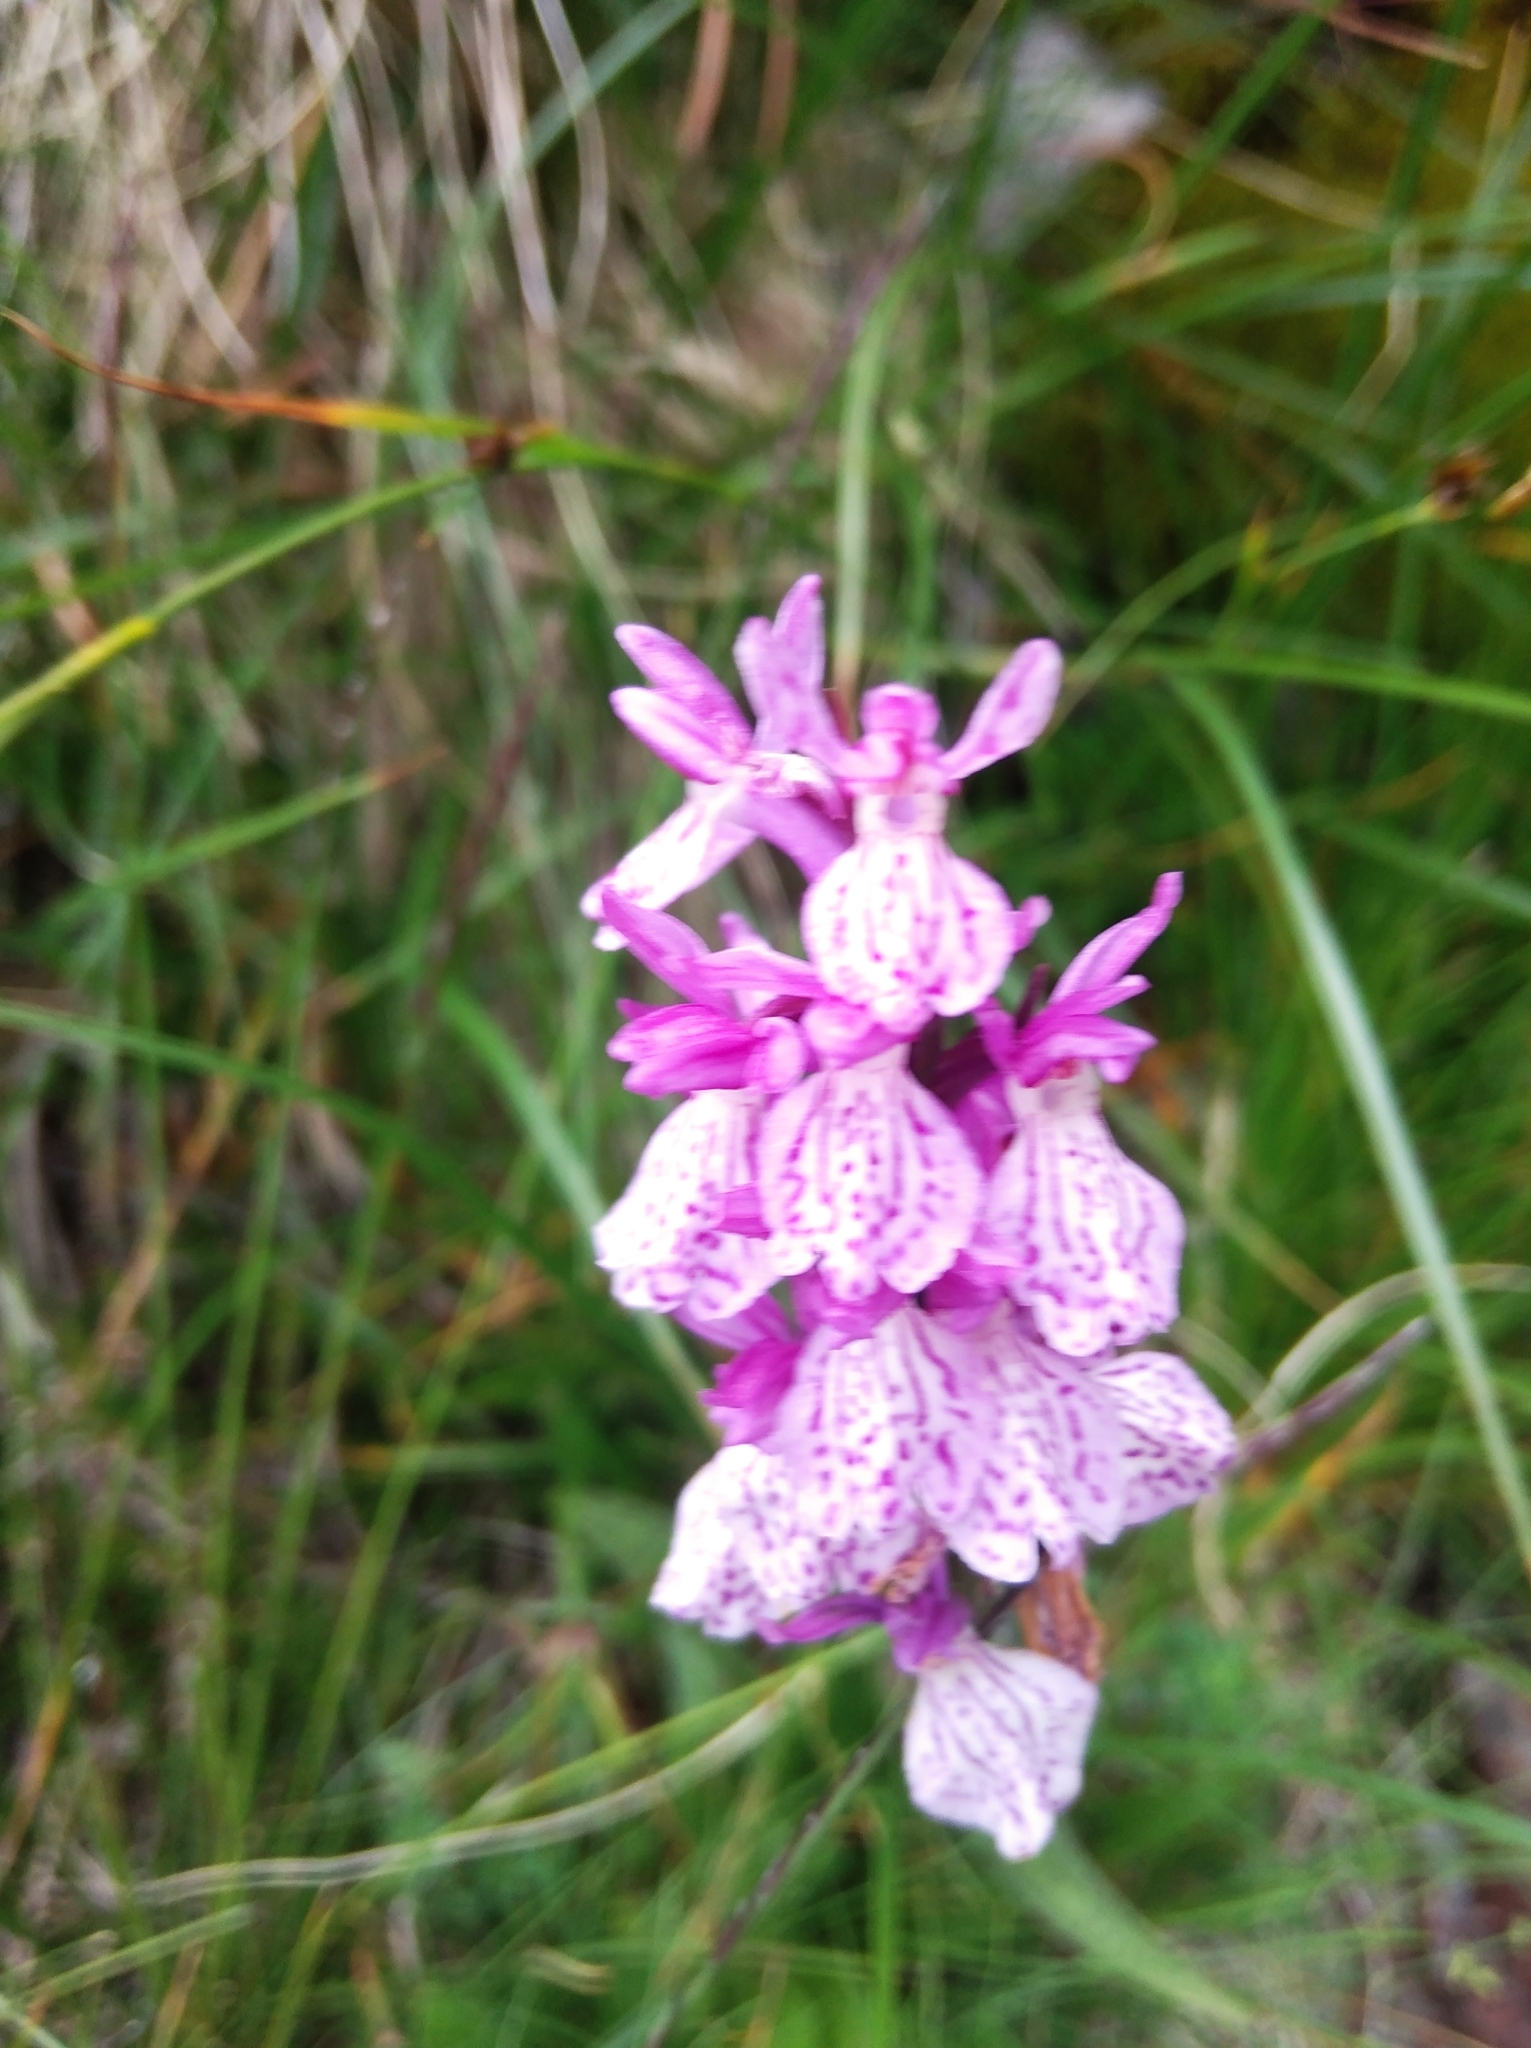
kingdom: Plantae
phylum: Tracheophyta
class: Liliopsida
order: Asparagales
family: Orchidaceae
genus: Dactylorhiza
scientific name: Dactylorhiza maculata
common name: Heath spotted-orchid
